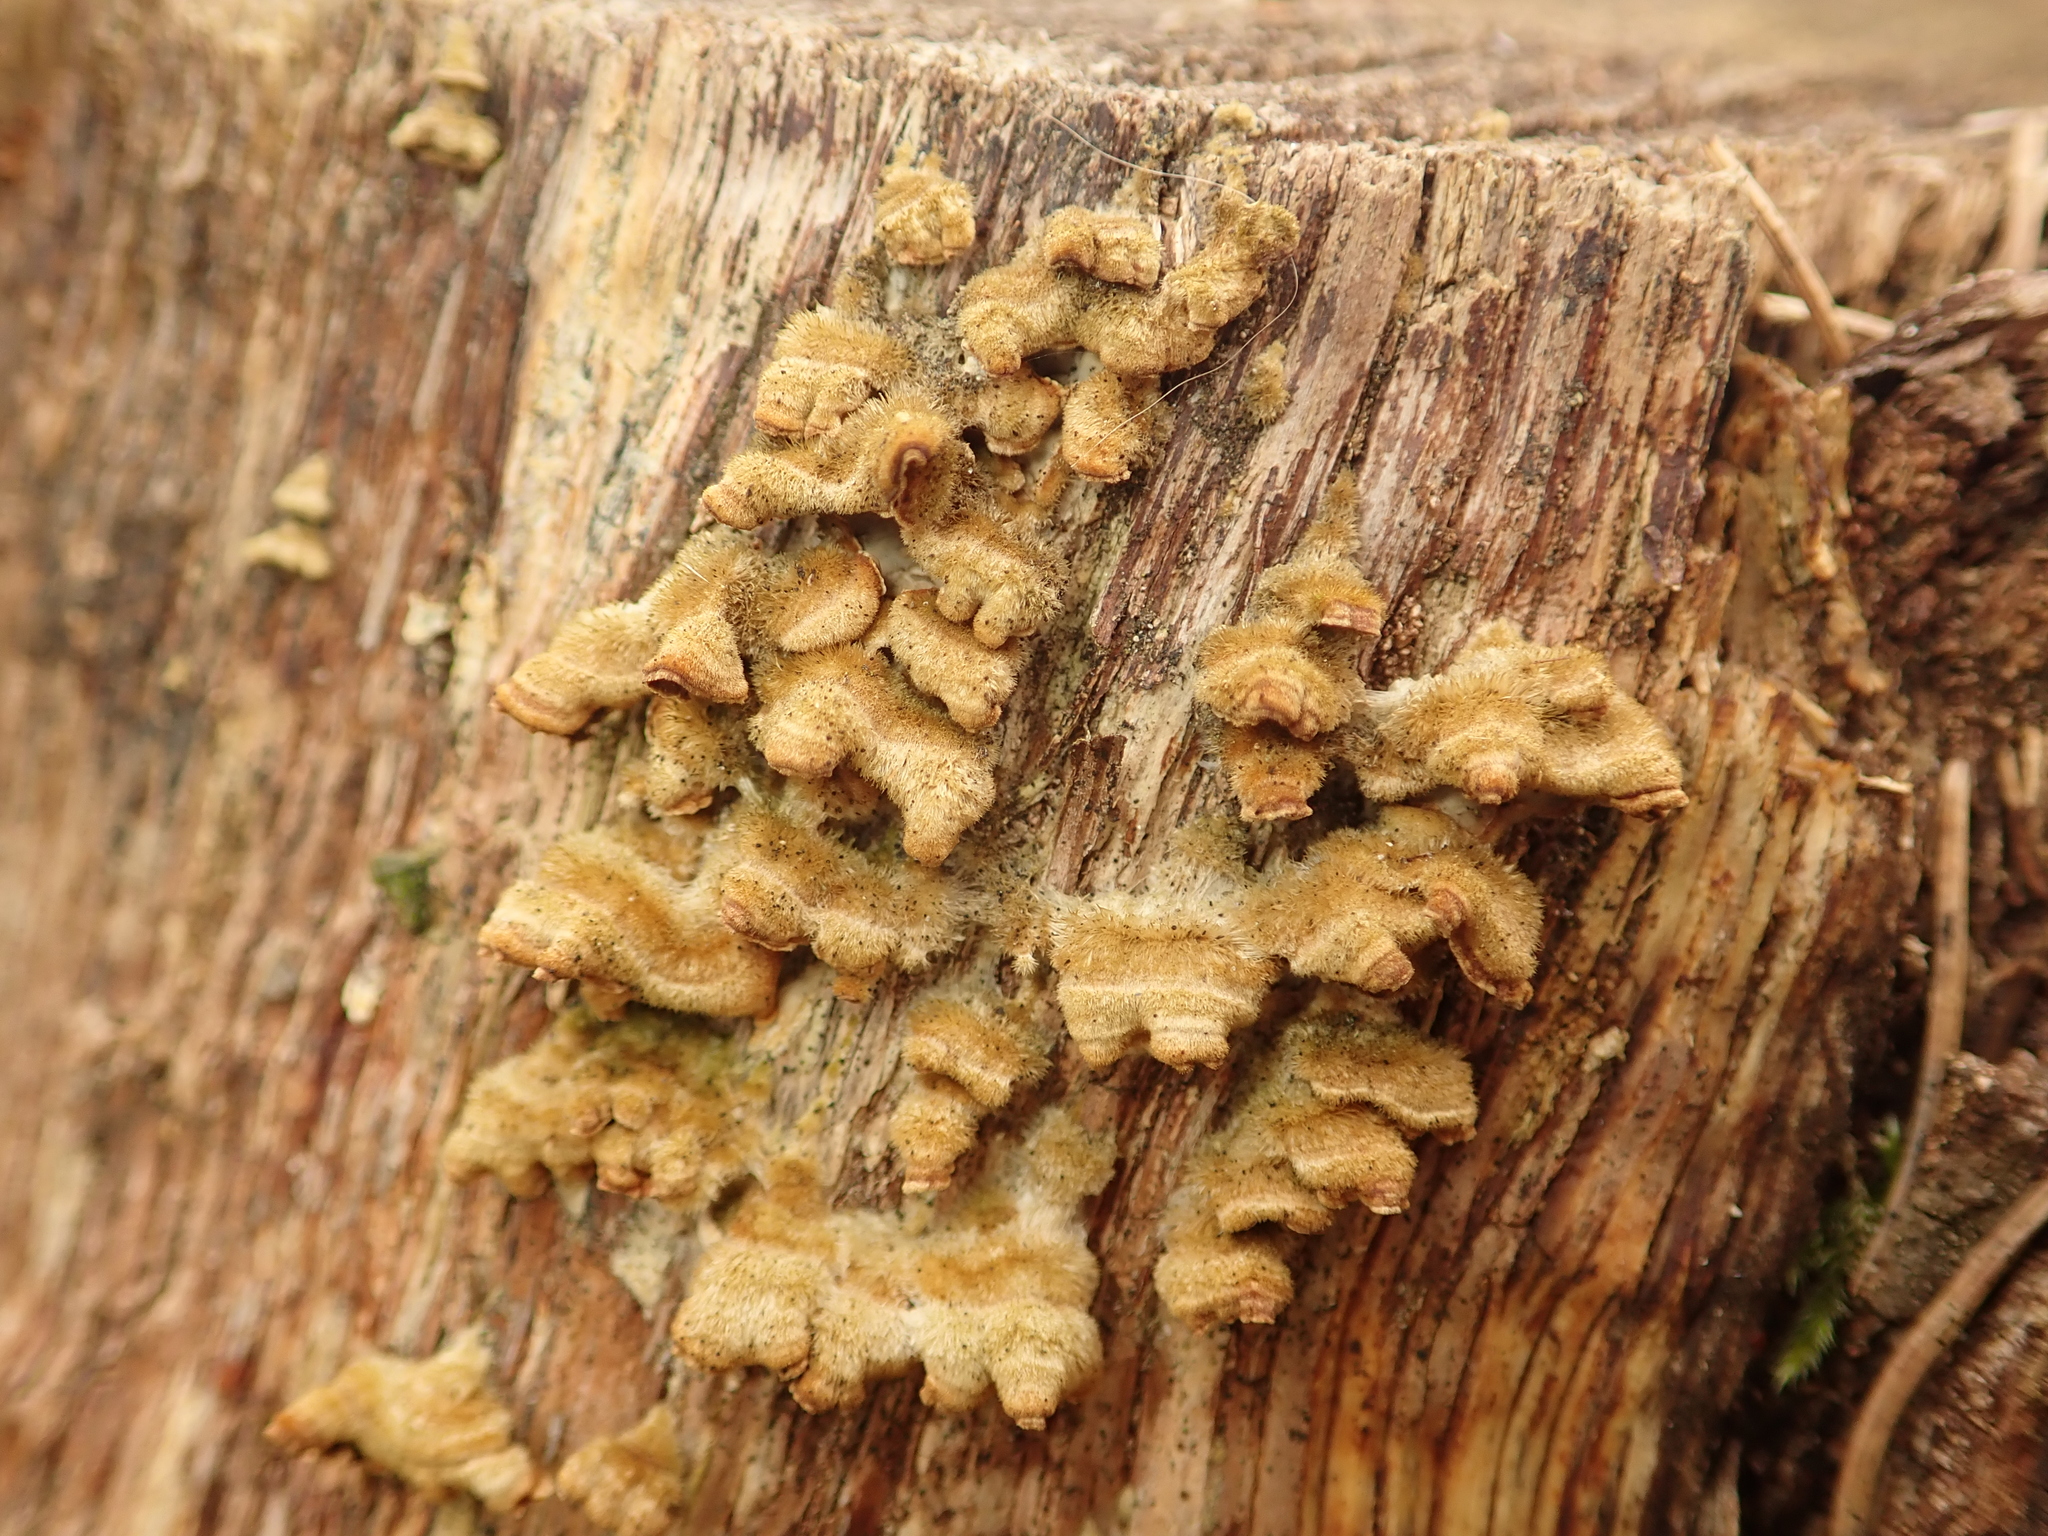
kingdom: Fungi
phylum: Basidiomycota
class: Agaricomycetes
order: Russulales
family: Stereaceae
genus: Stereum
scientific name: Stereum hirsutum
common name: Hairy curtain crust
